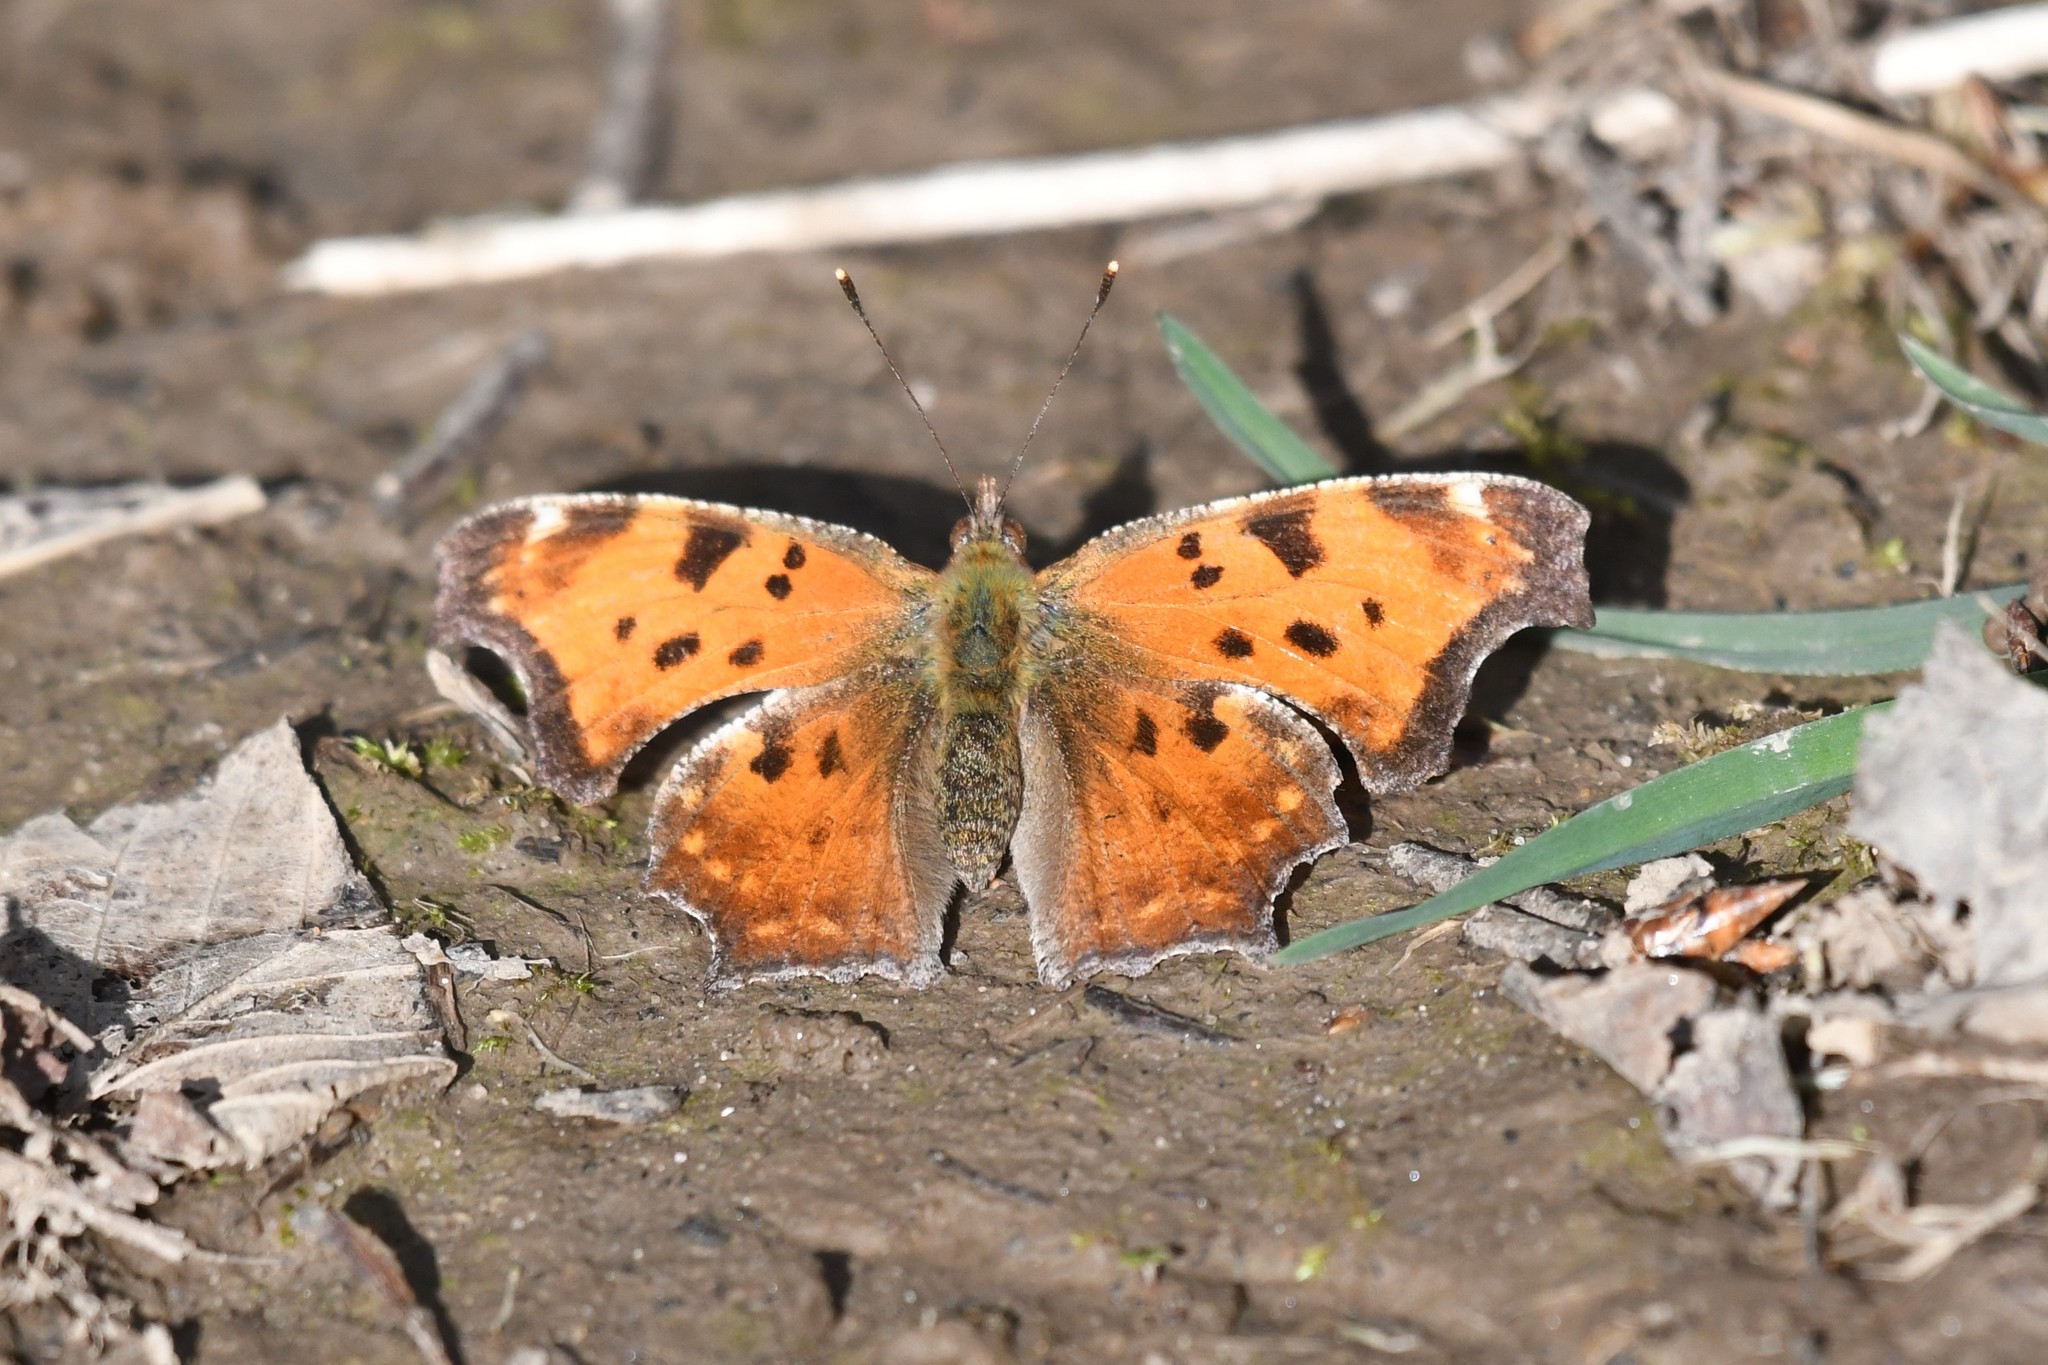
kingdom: Animalia
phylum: Arthropoda
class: Insecta
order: Lepidoptera
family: Nymphalidae
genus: Polygonia
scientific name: Polygonia comma
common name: Eastern comma
